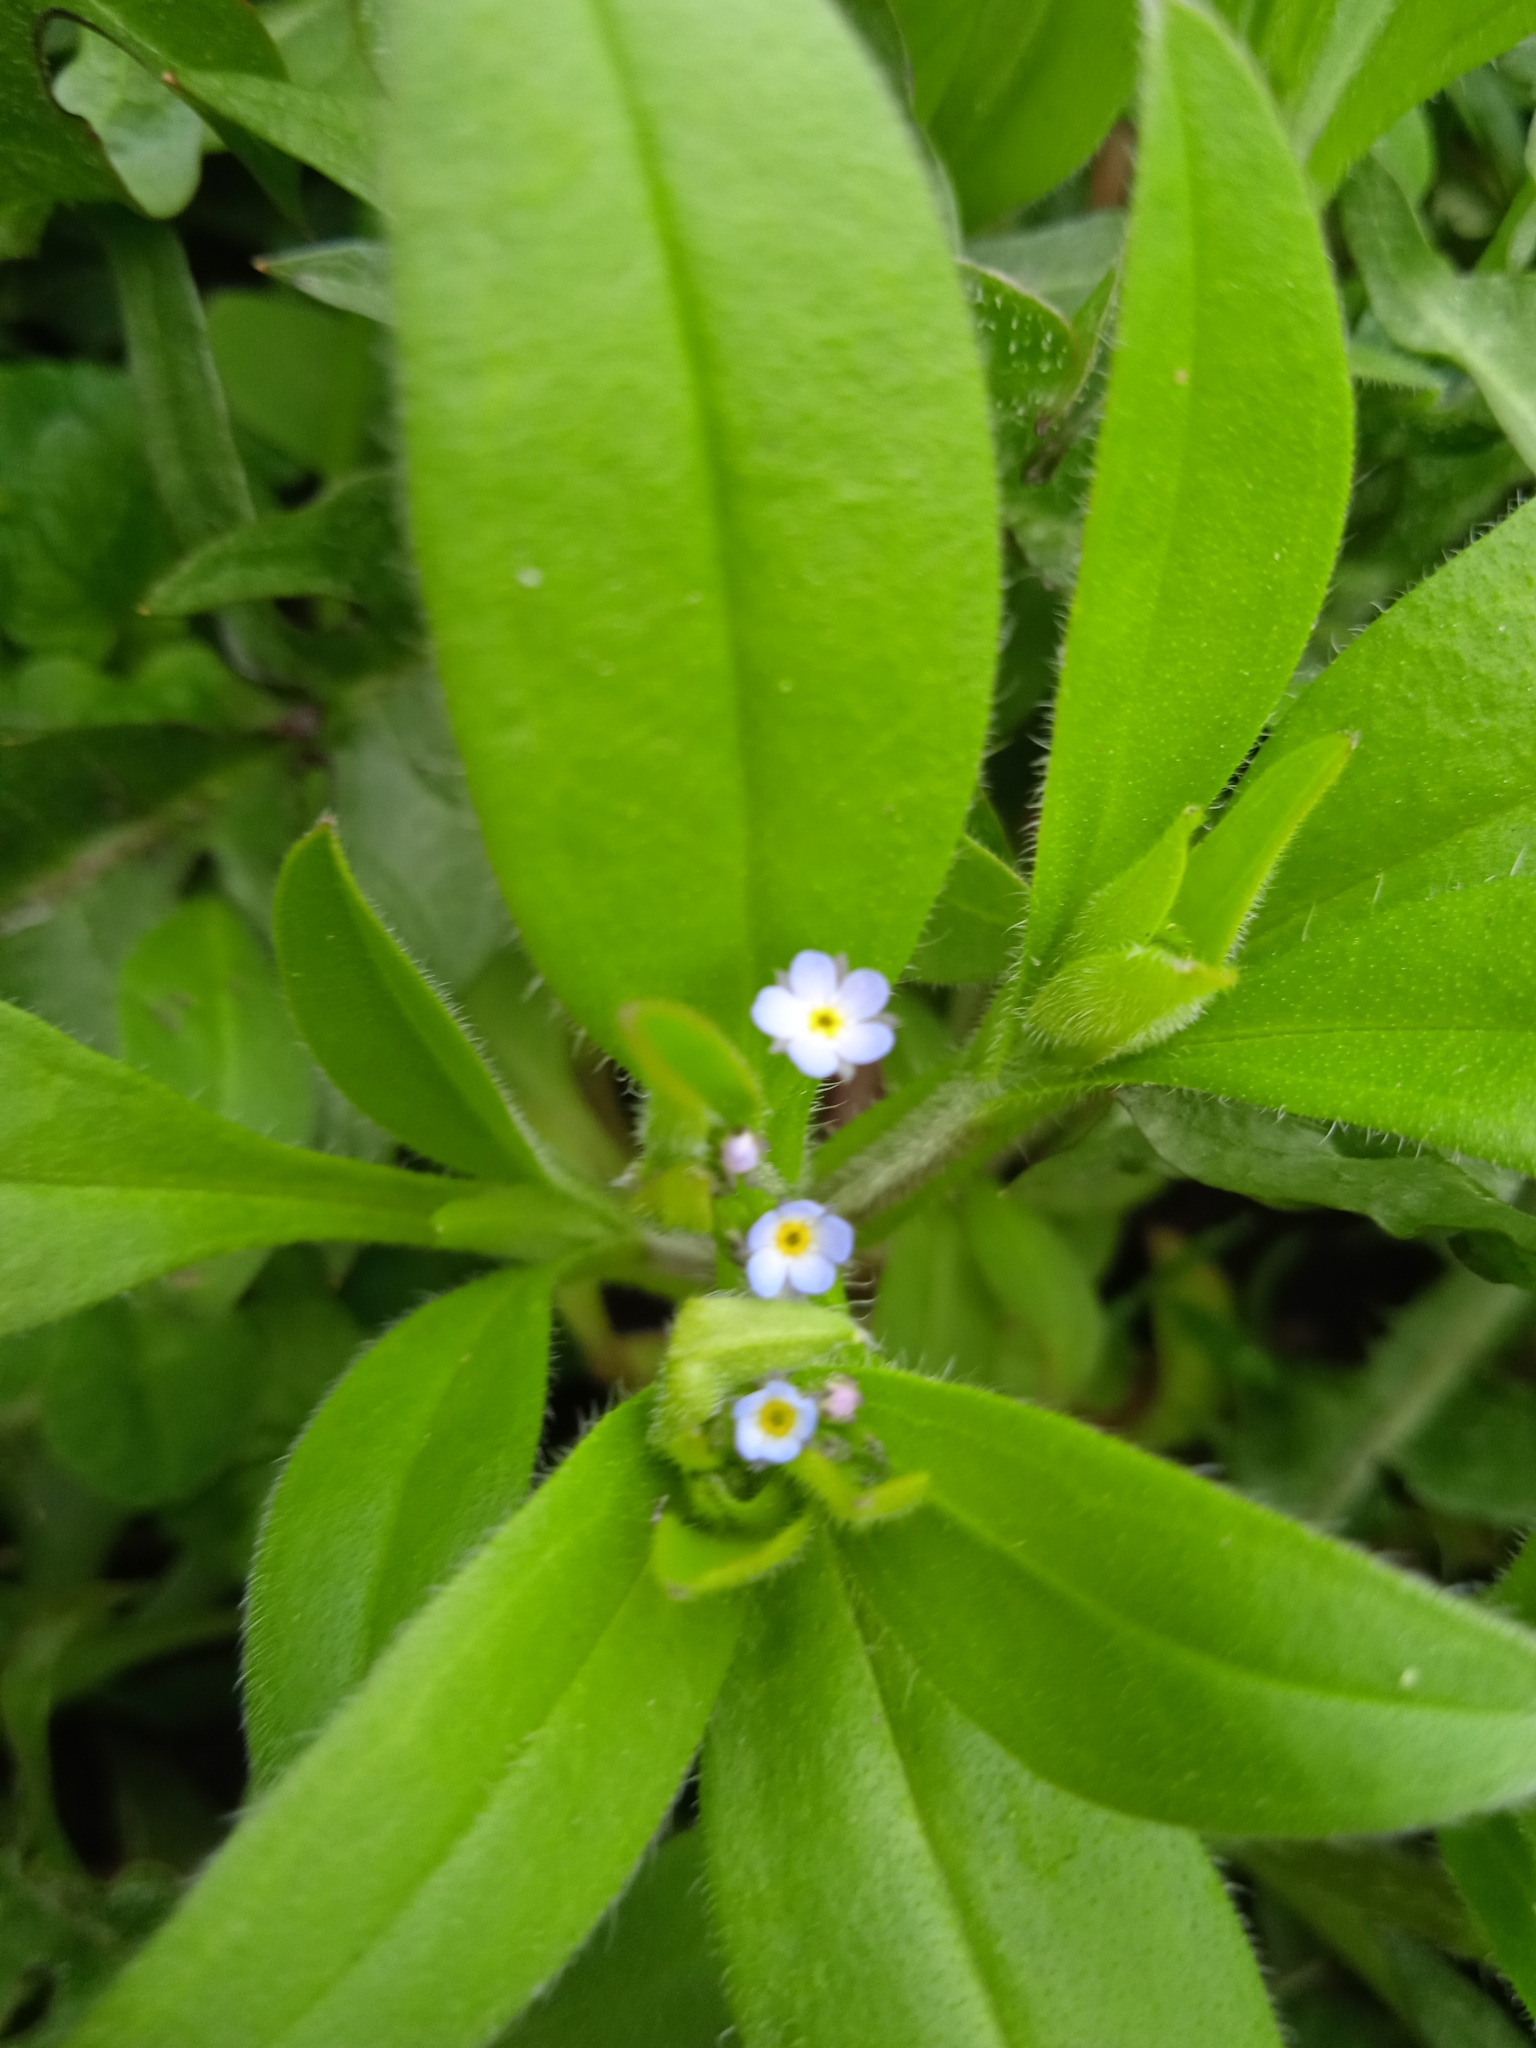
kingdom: Plantae
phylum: Tracheophyta
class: Magnoliopsida
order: Boraginales
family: Boraginaceae
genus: Myosotis
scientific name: Myosotis sparsiflora
